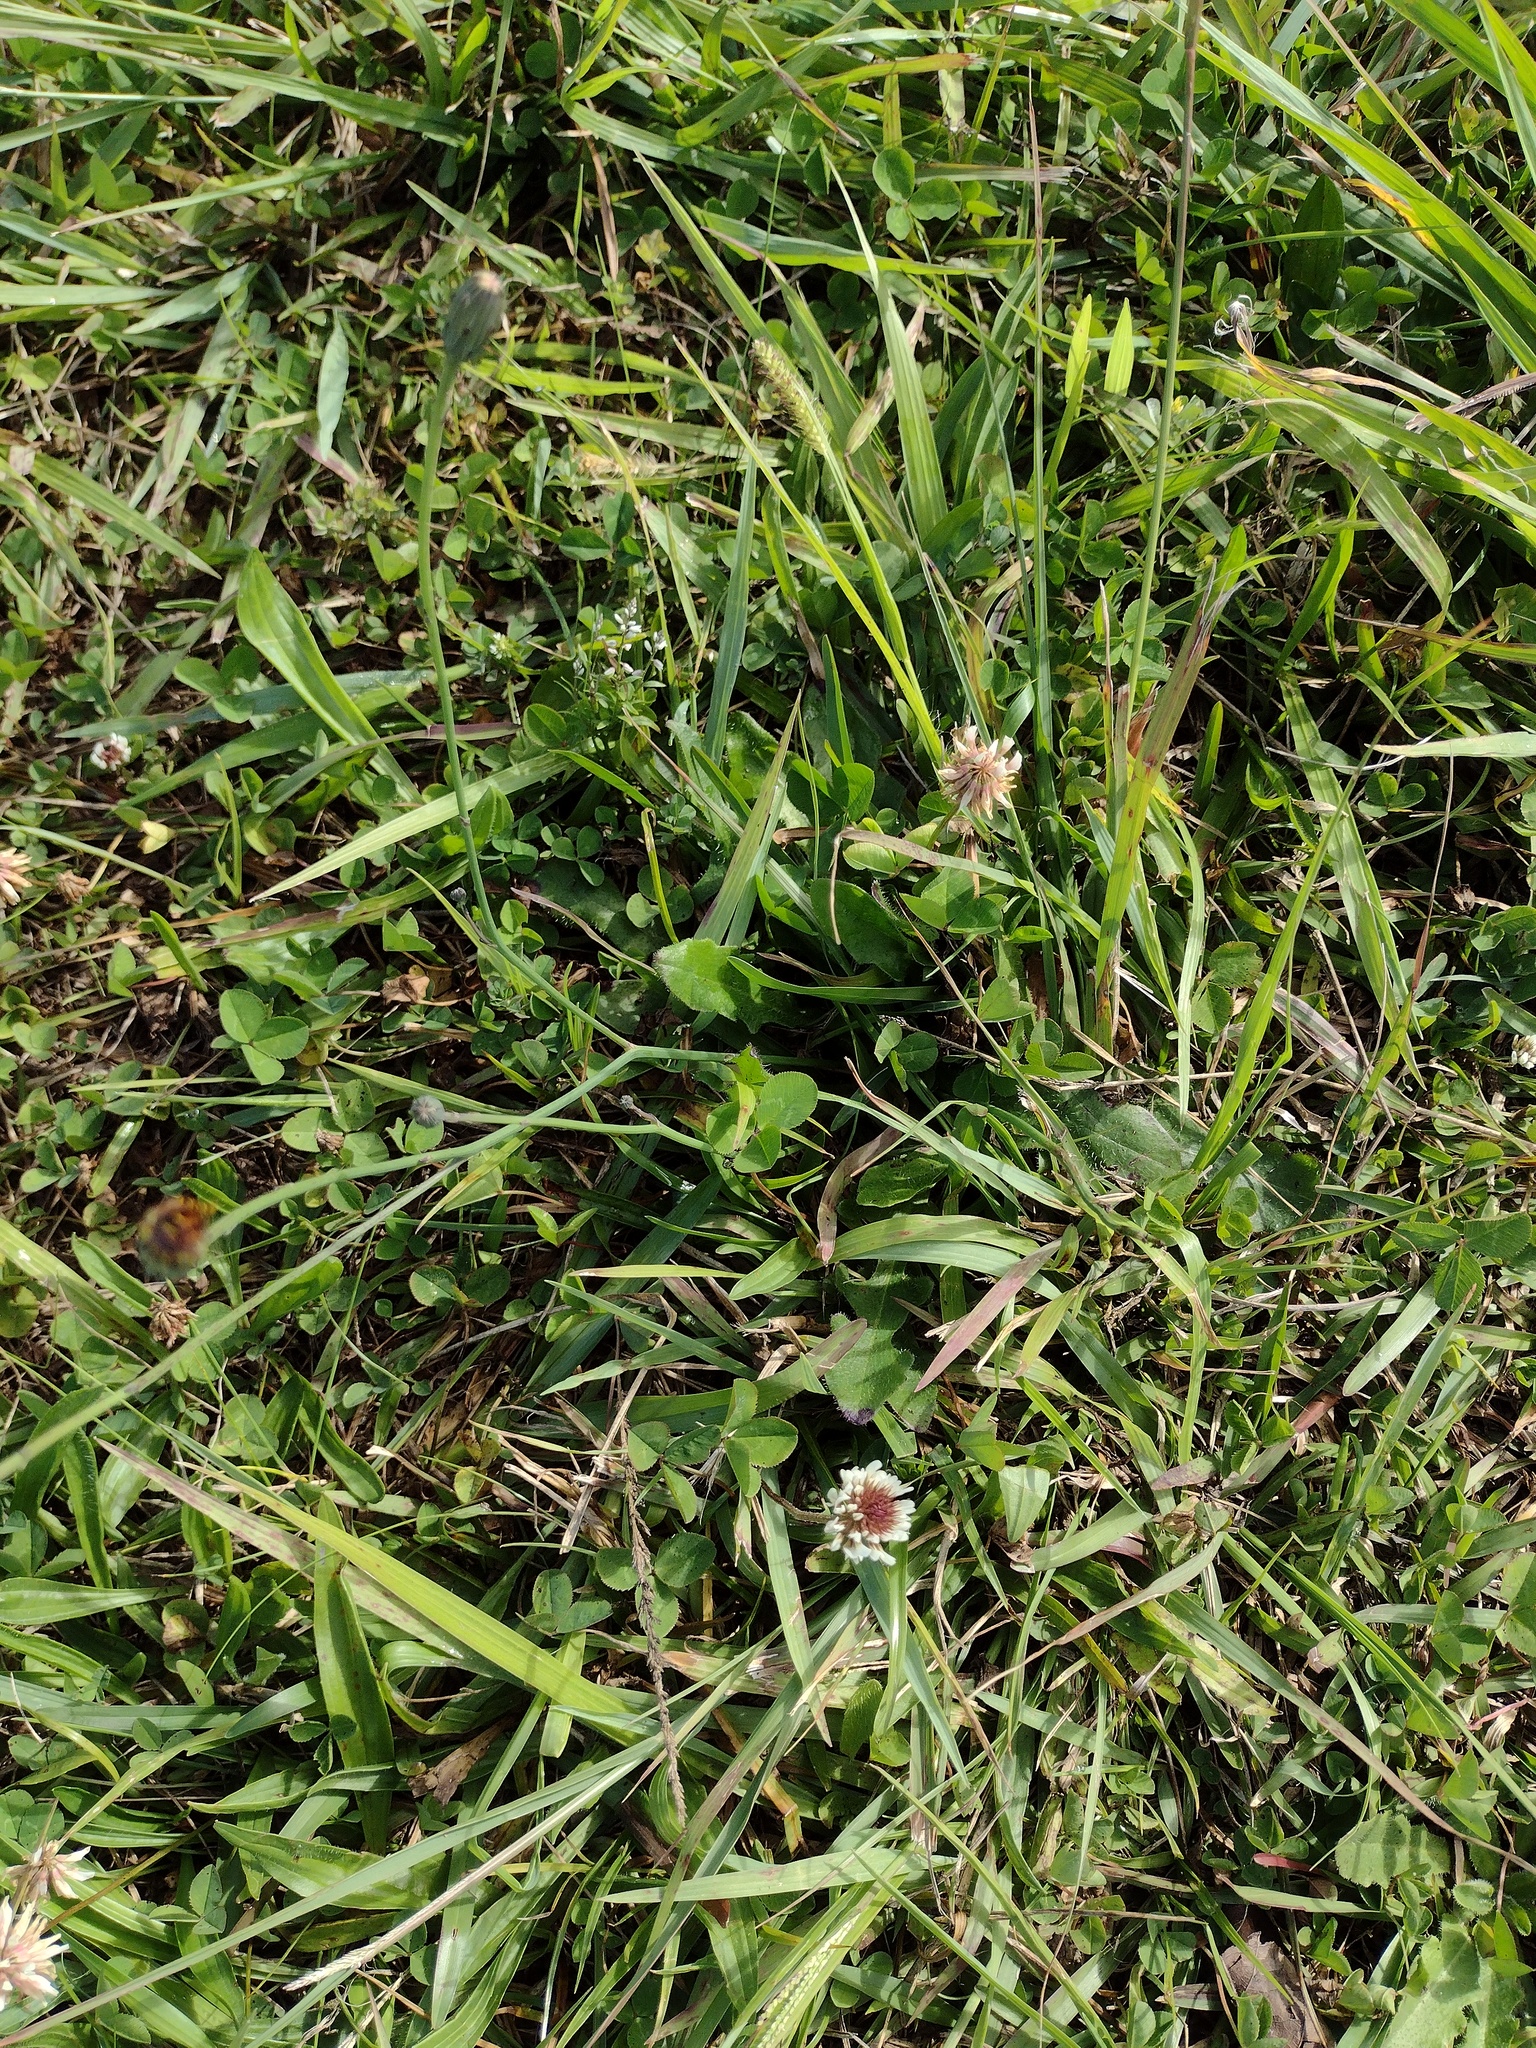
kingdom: Plantae
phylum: Tracheophyta
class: Magnoliopsida
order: Fabales
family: Fabaceae
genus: Trifolium
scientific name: Trifolium repens
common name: White clover
